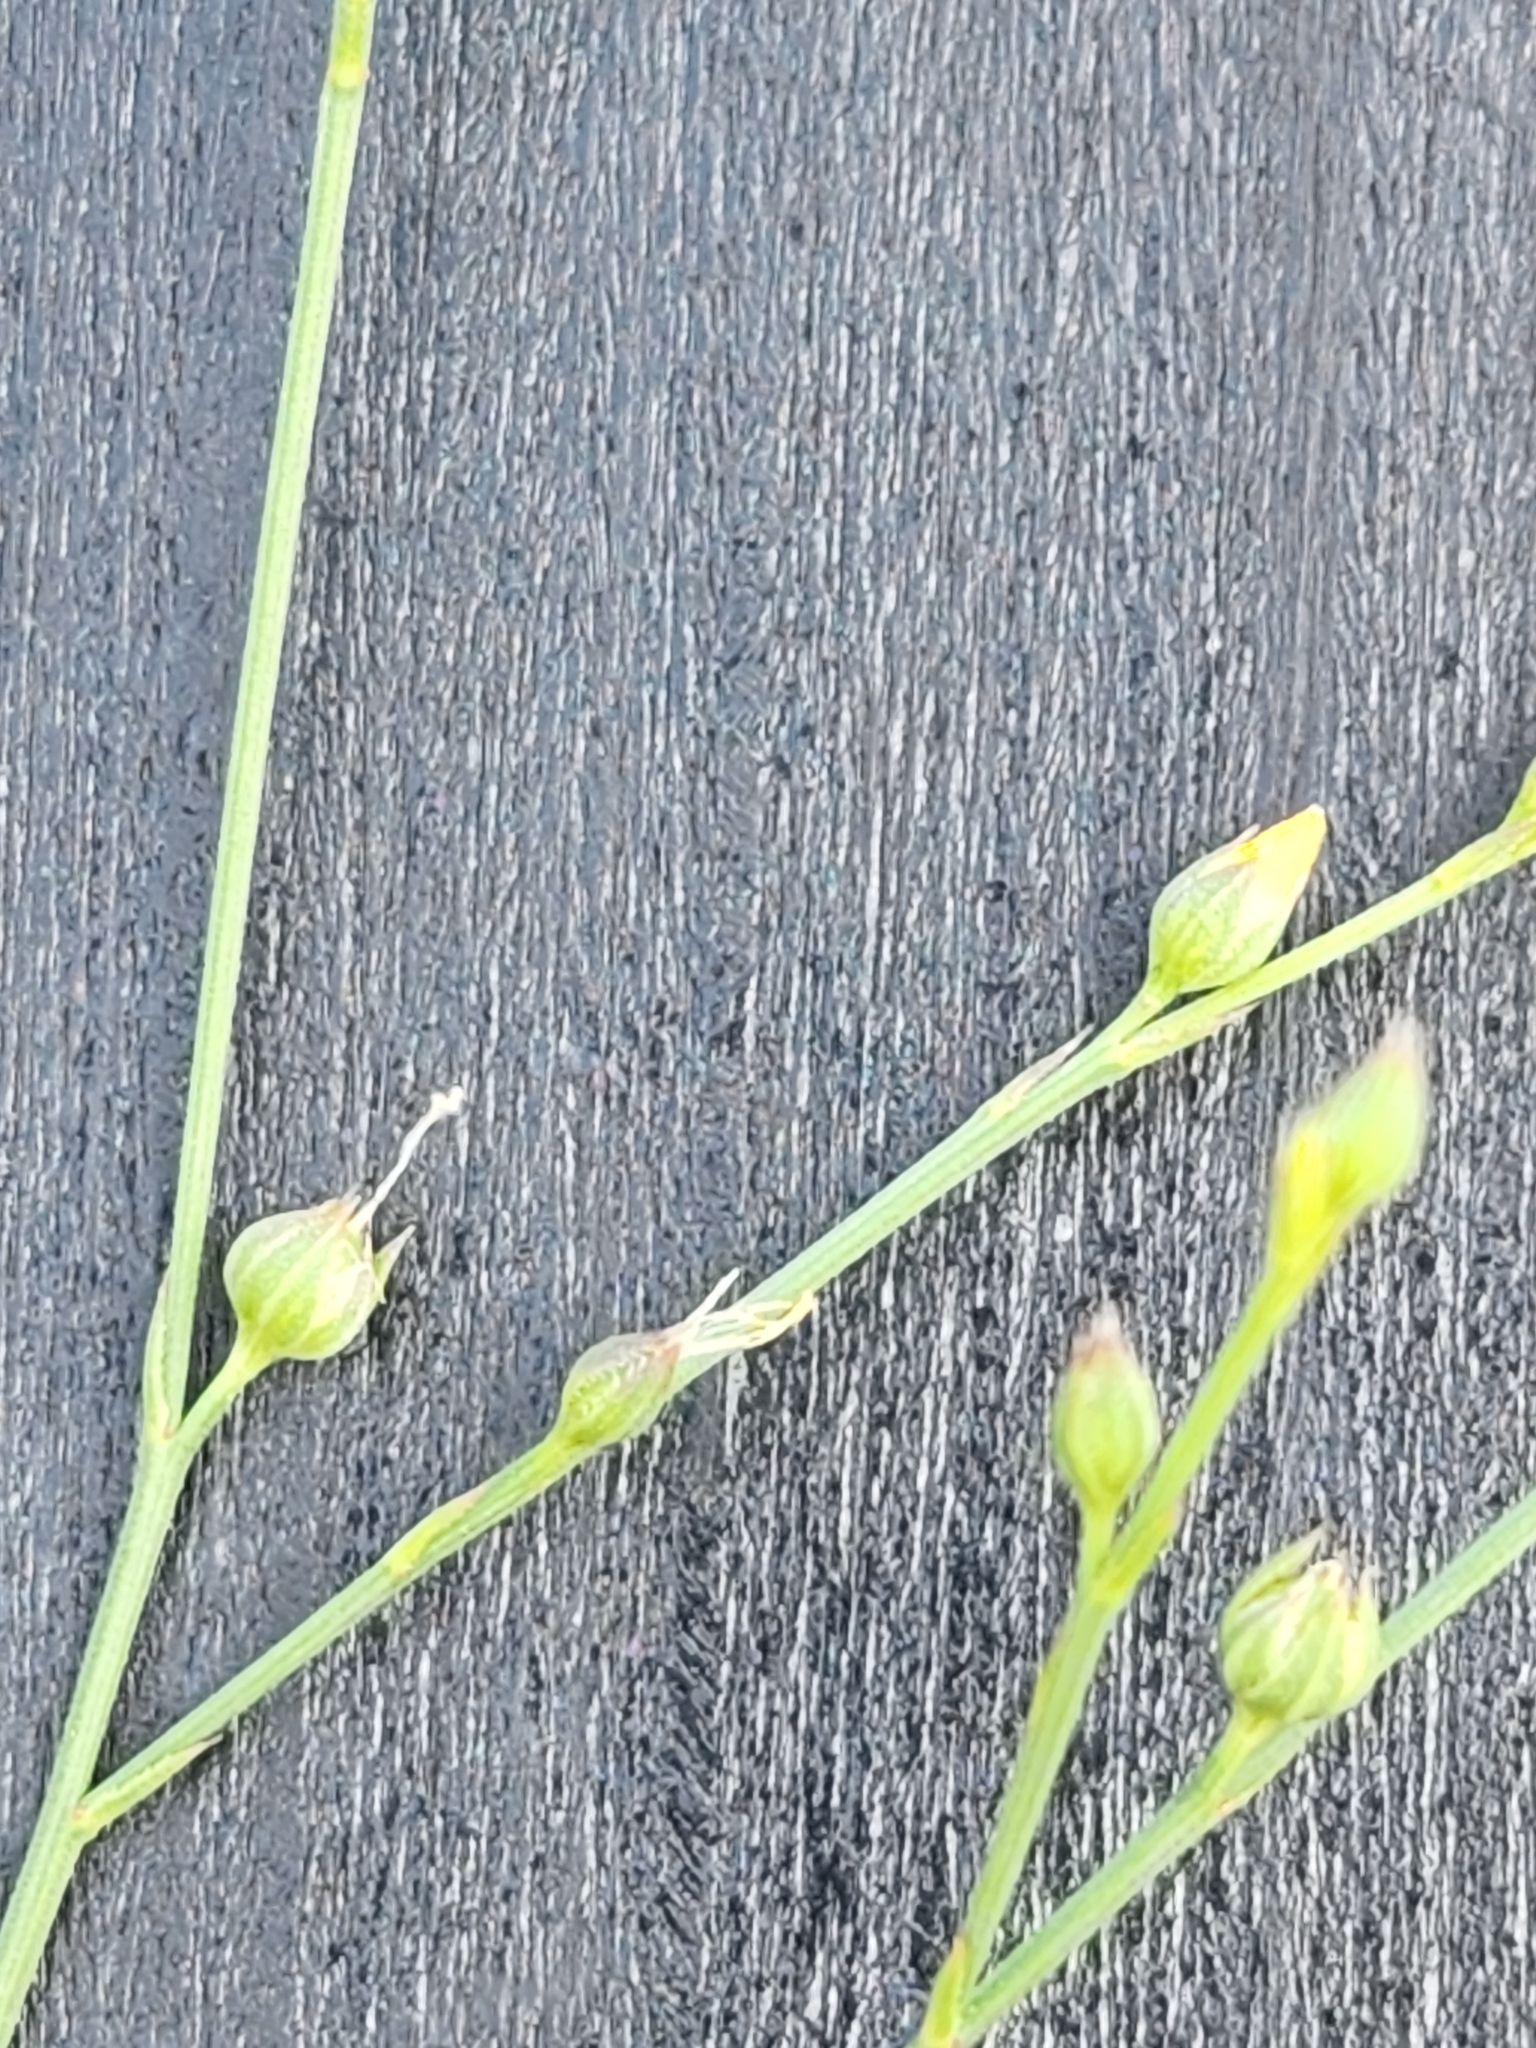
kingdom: Plantae
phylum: Tracheophyta
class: Magnoliopsida
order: Malpighiales
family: Linaceae
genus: Linum
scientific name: Linum rupestre
